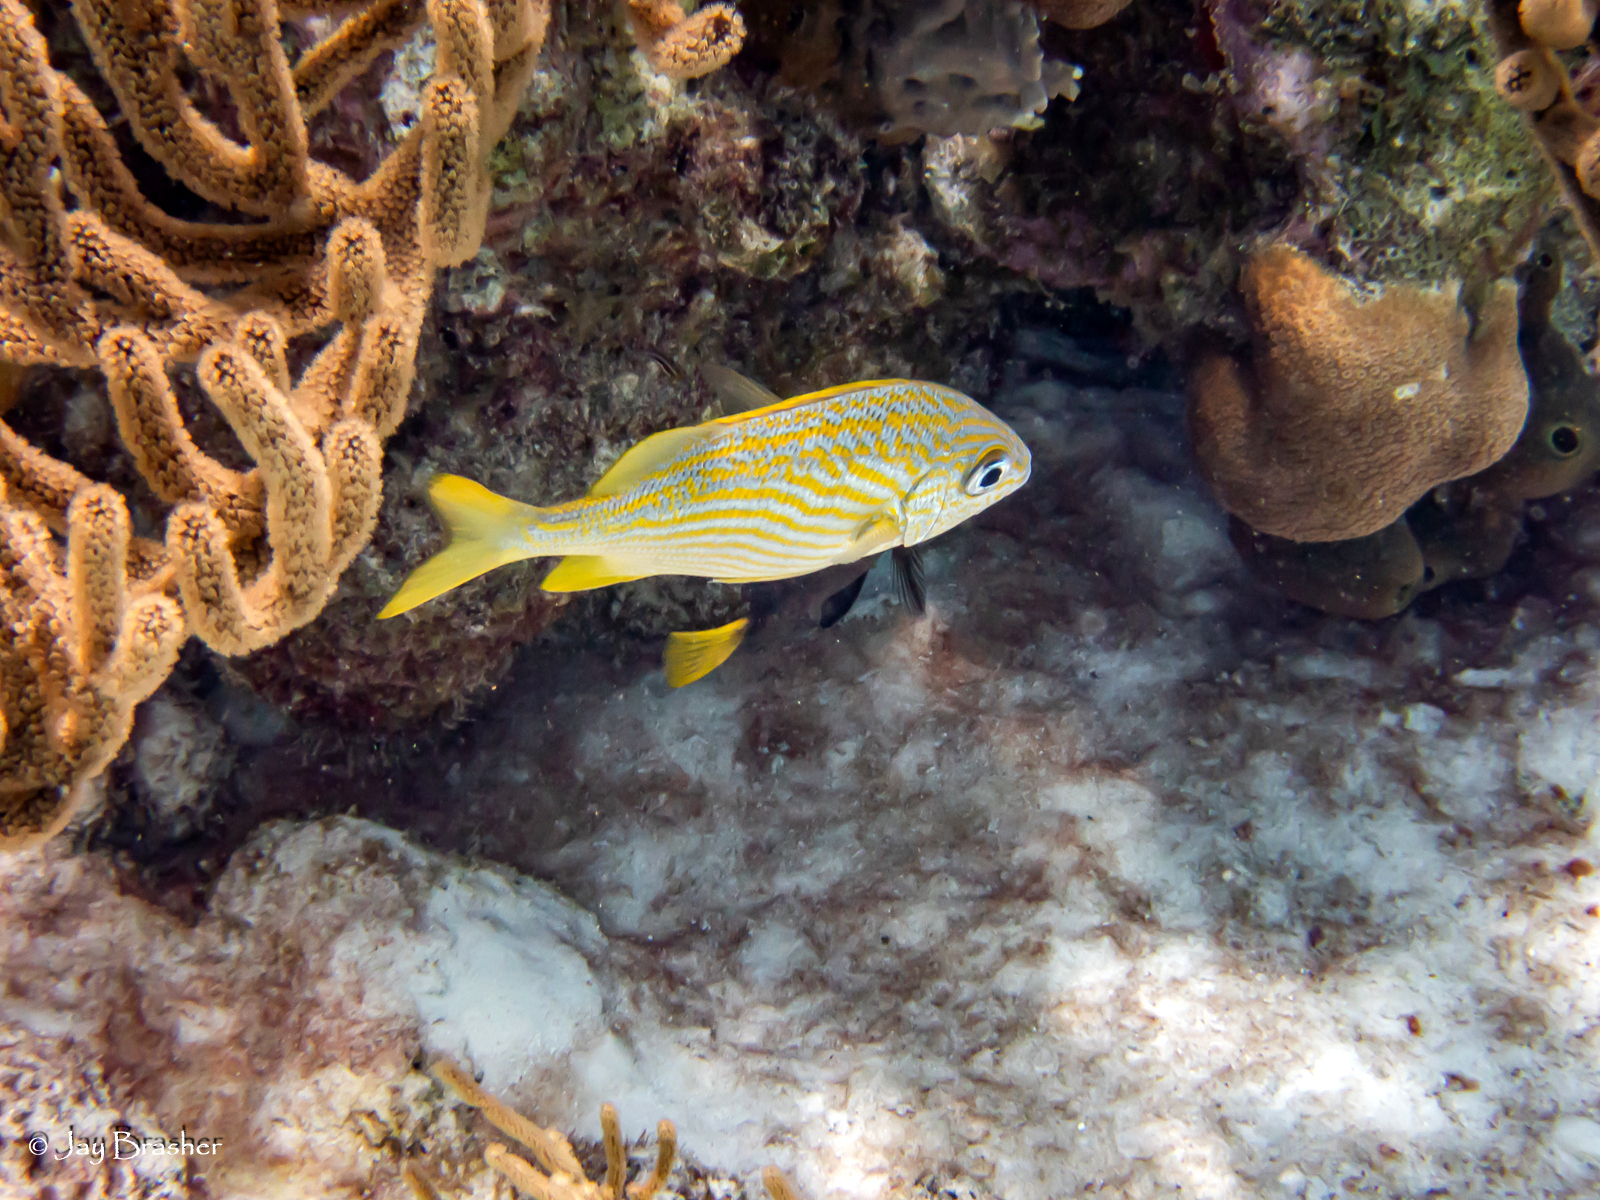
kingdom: Animalia
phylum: Chordata
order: Perciformes
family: Haemulidae
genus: Haemulon
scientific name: Haemulon flavolineatum
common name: French grunt
